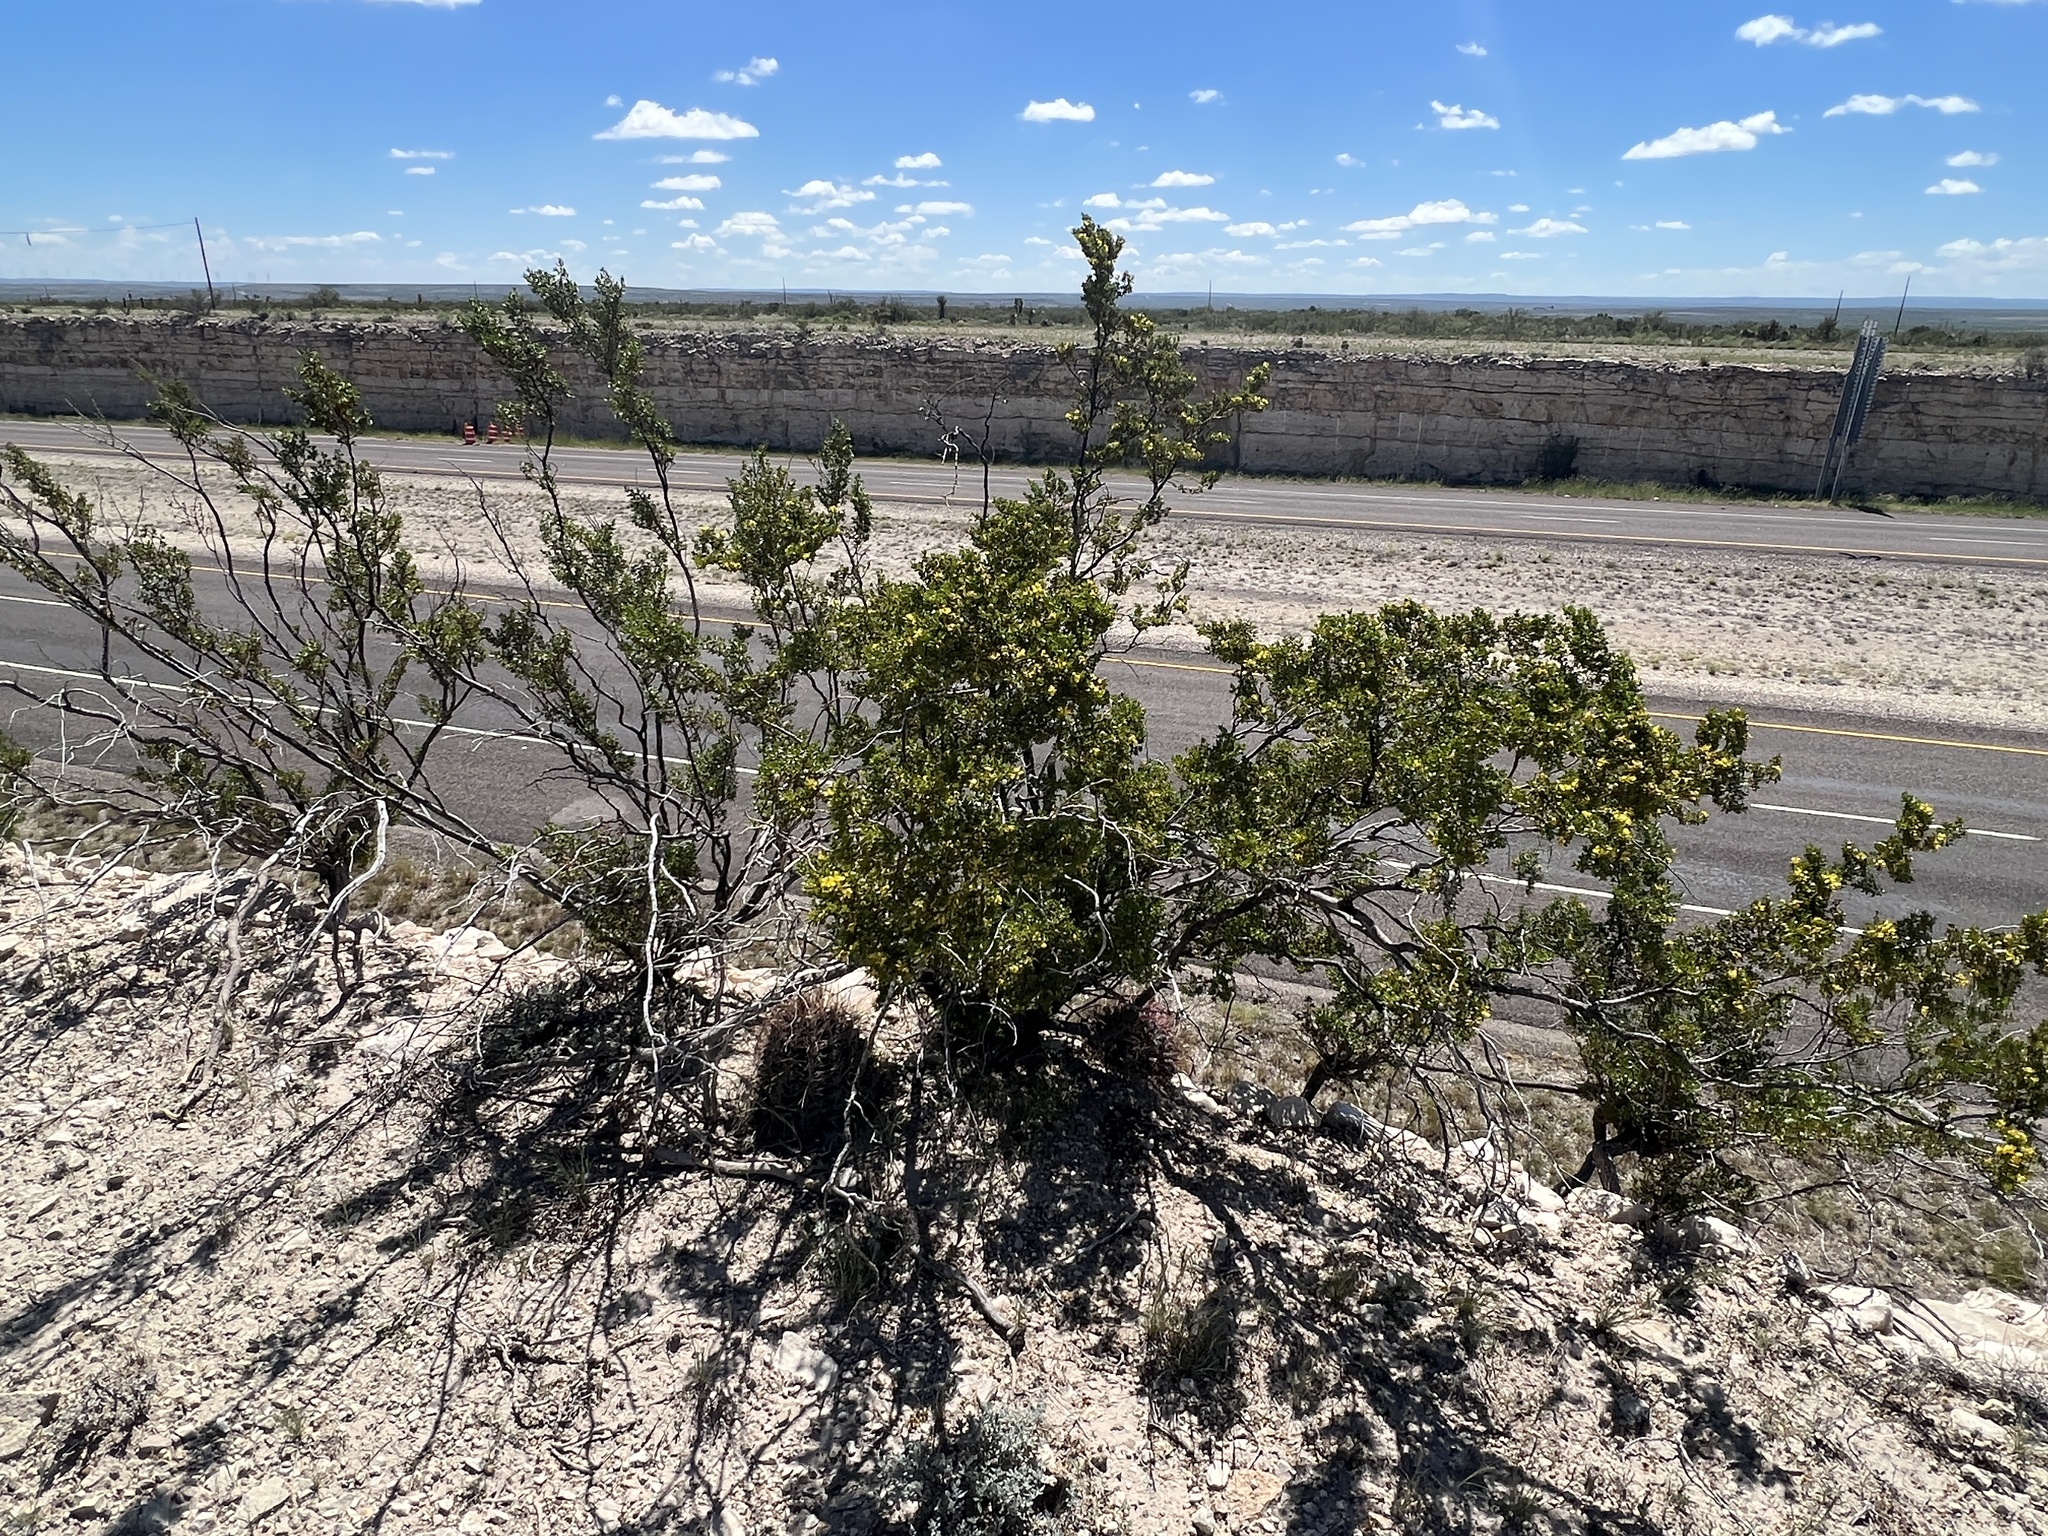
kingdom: Plantae
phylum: Tracheophyta
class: Magnoliopsida
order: Zygophyllales
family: Zygophyllaceae
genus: Larrea
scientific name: Larrea tridentata
